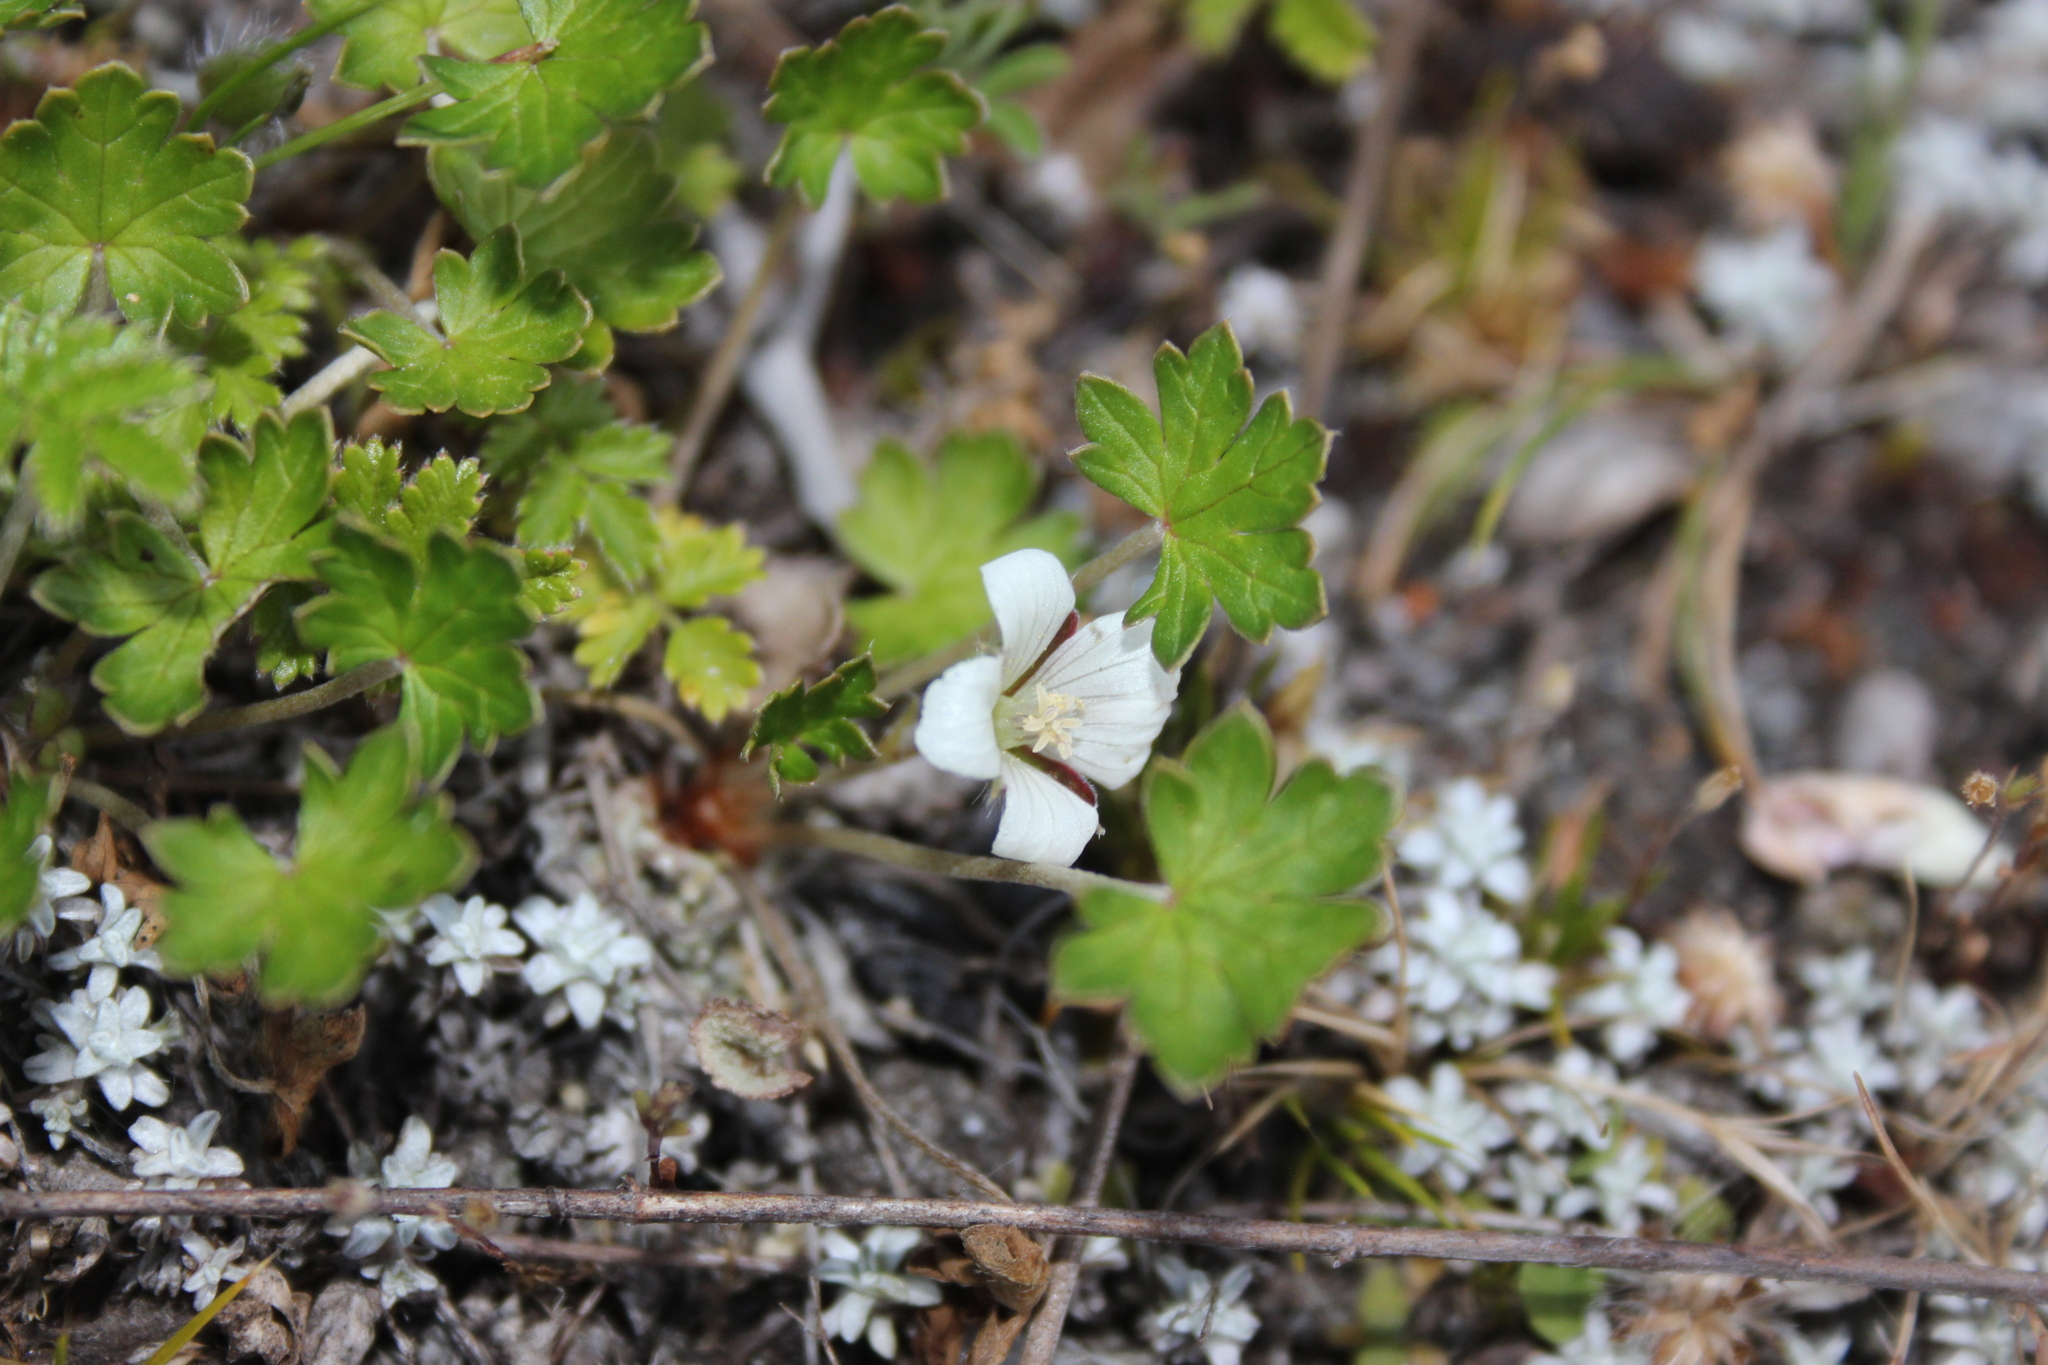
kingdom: Plantae
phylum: Tracheophyta
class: Magnoliopsida
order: Geraniales
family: Geraniaceae
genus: Geranium
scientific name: Geranium brevicaule
